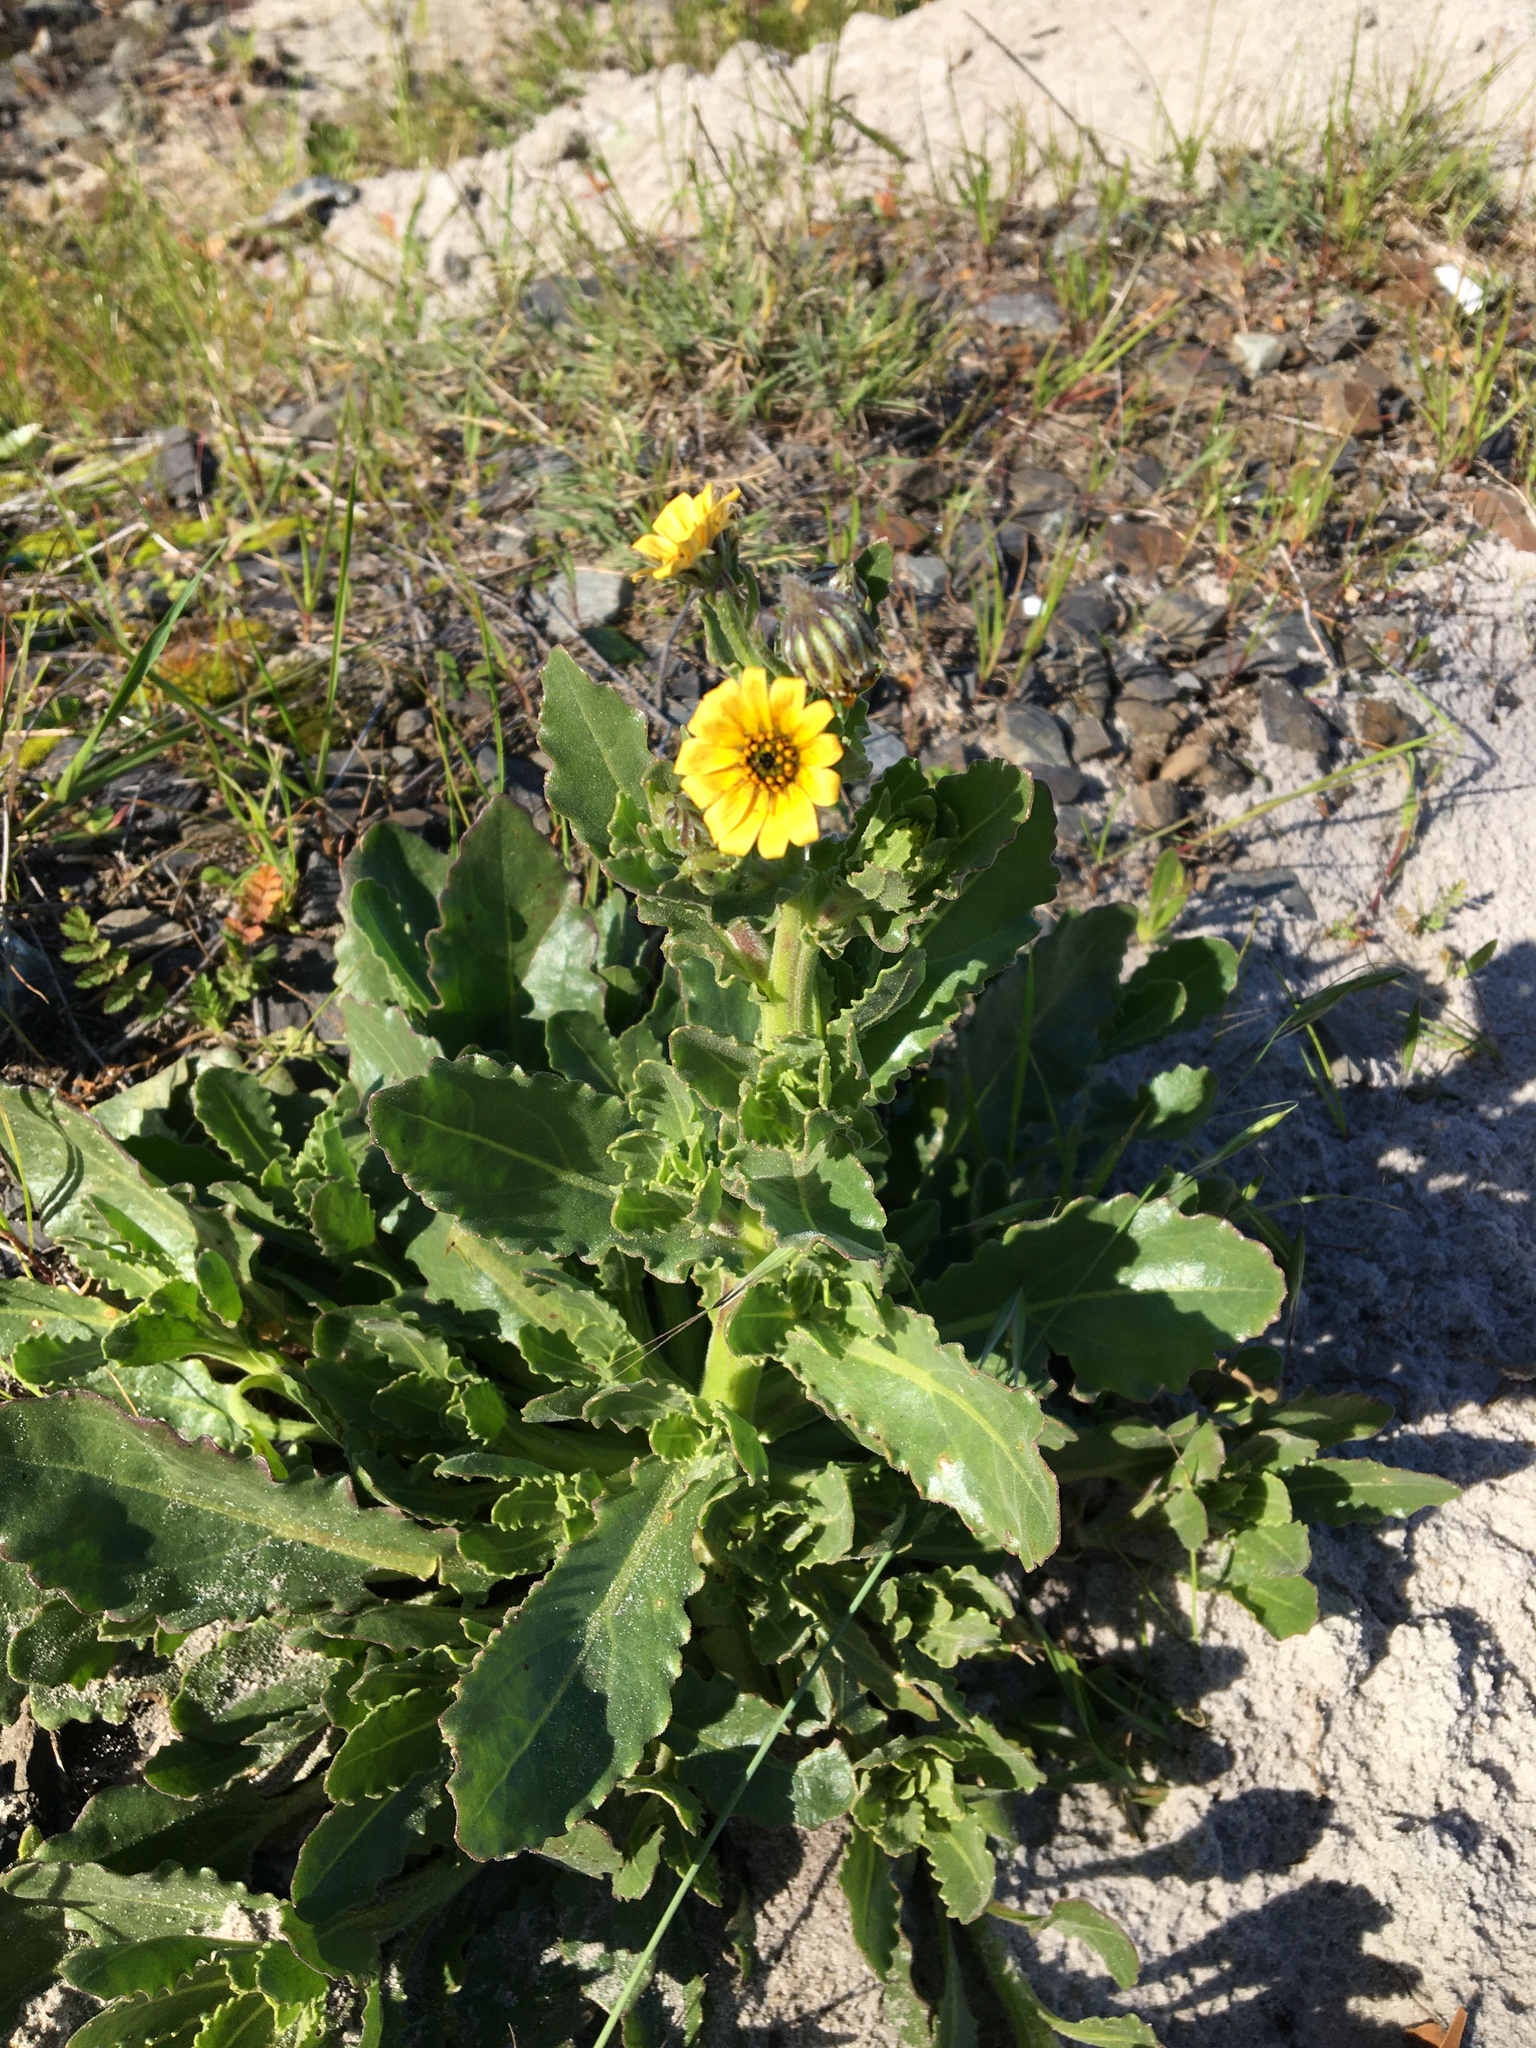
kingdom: Plantae
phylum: Tracheophyta
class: Magnoliopsida
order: Asterales
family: Asteraceae
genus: Osteospermum
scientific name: Osteospermum dentatum
